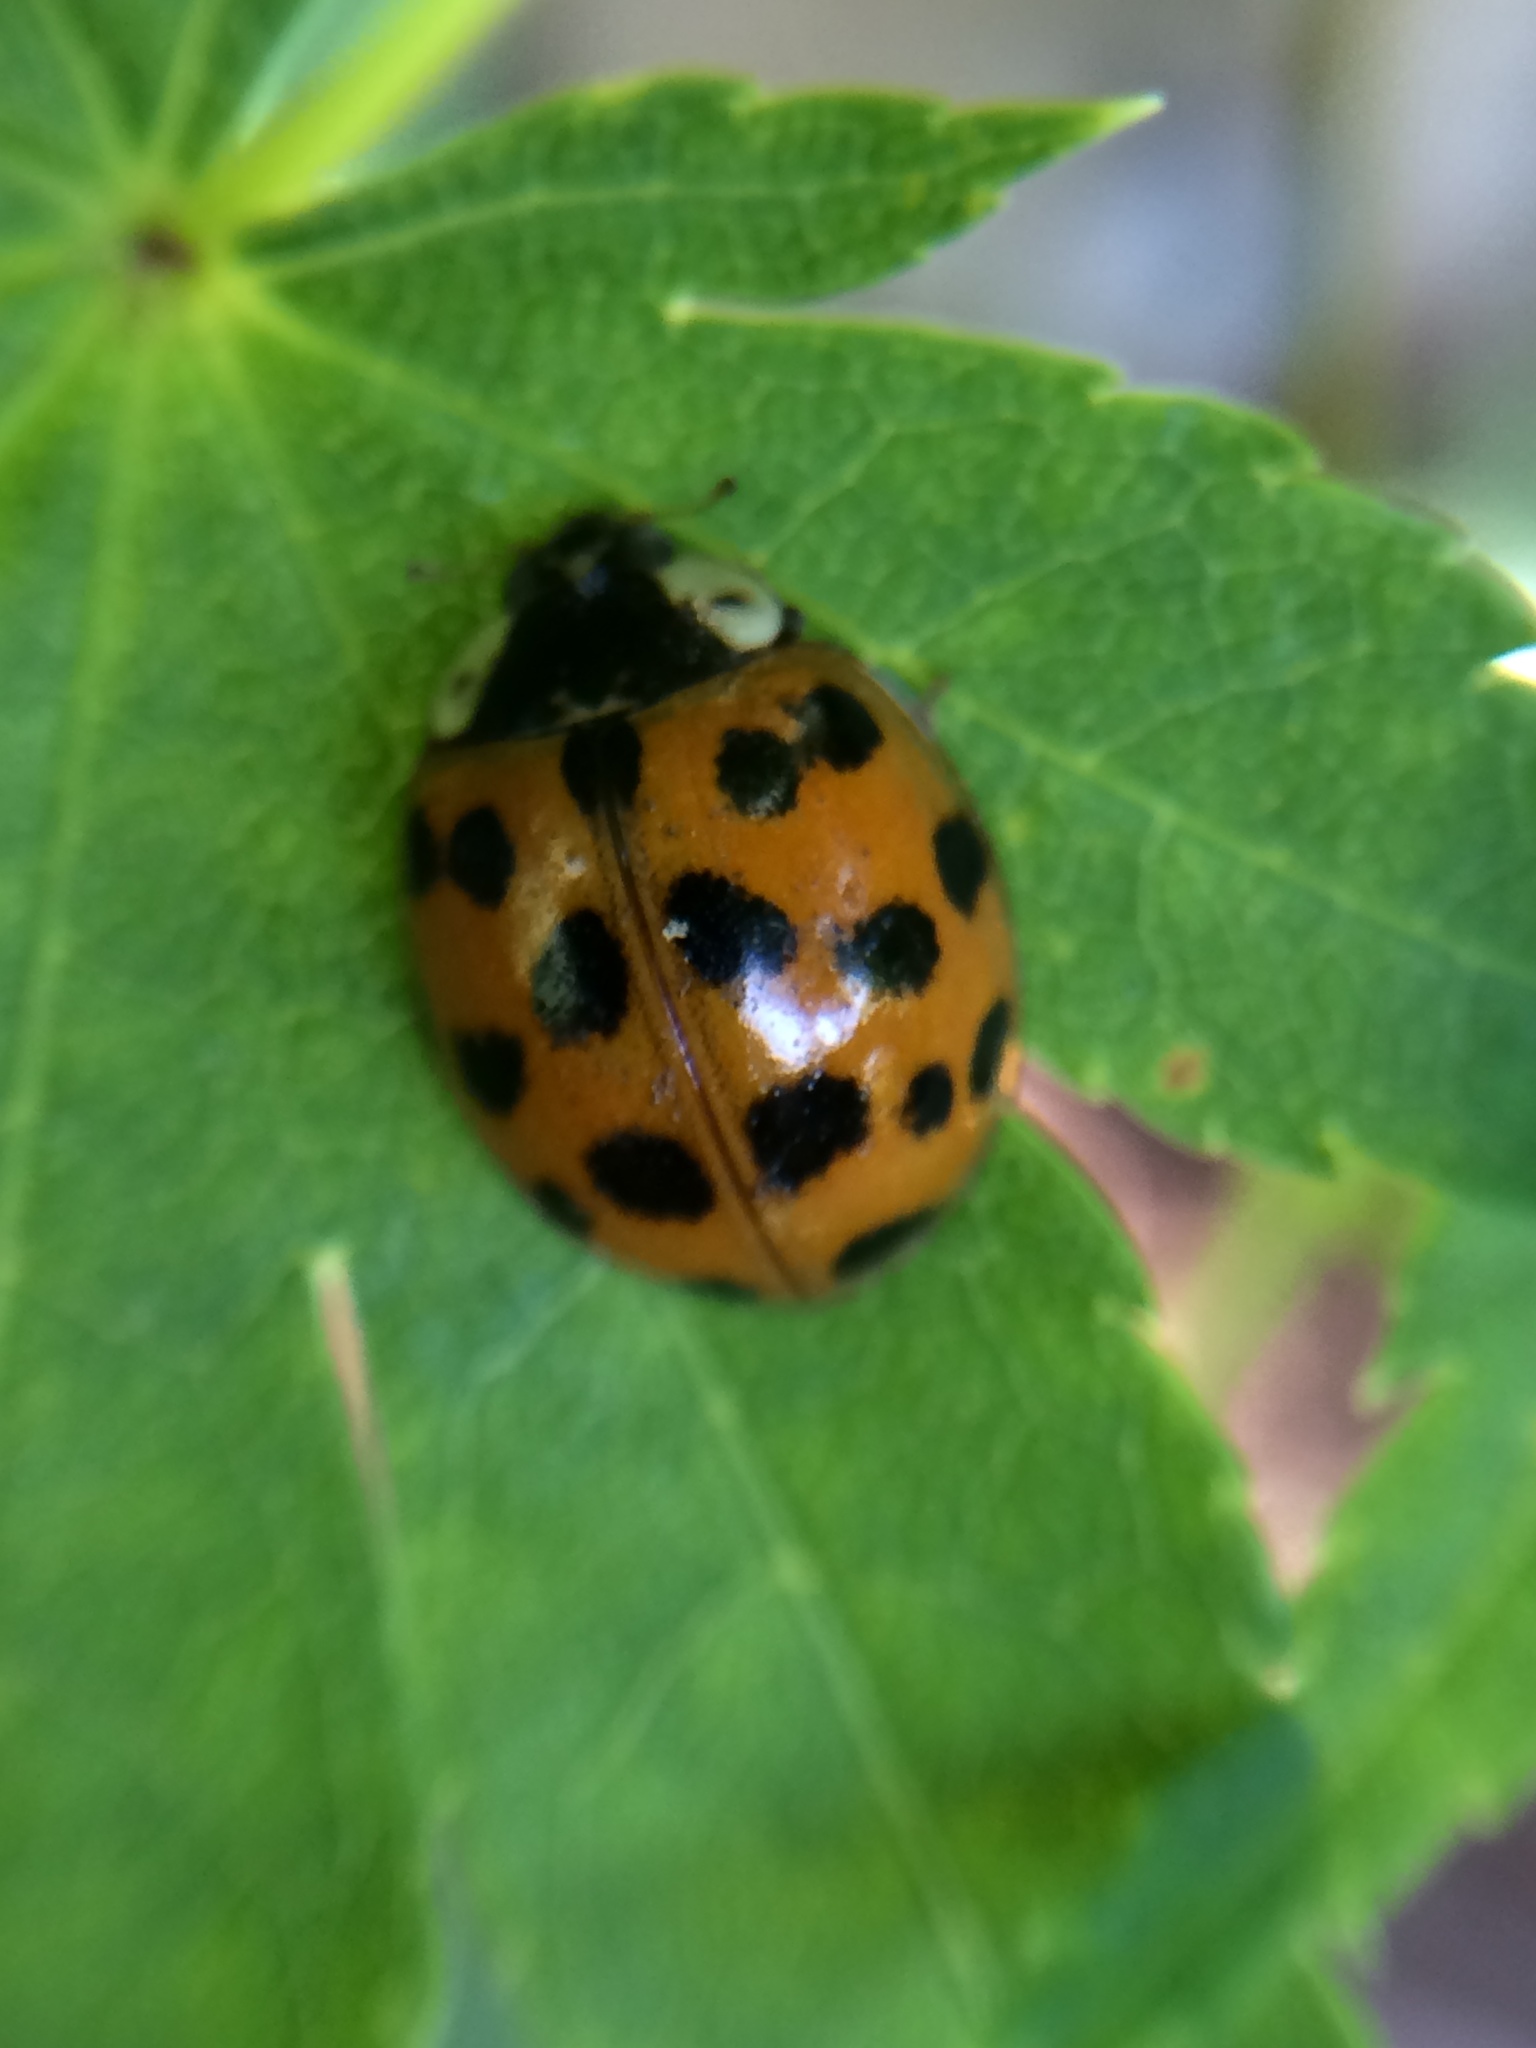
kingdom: Animalia
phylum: Arthropoda
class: Insecta
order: Coleoptera
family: Coccinellidae
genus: Harmonia
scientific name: Harmonia axyridis
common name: Harlequin ladybird
